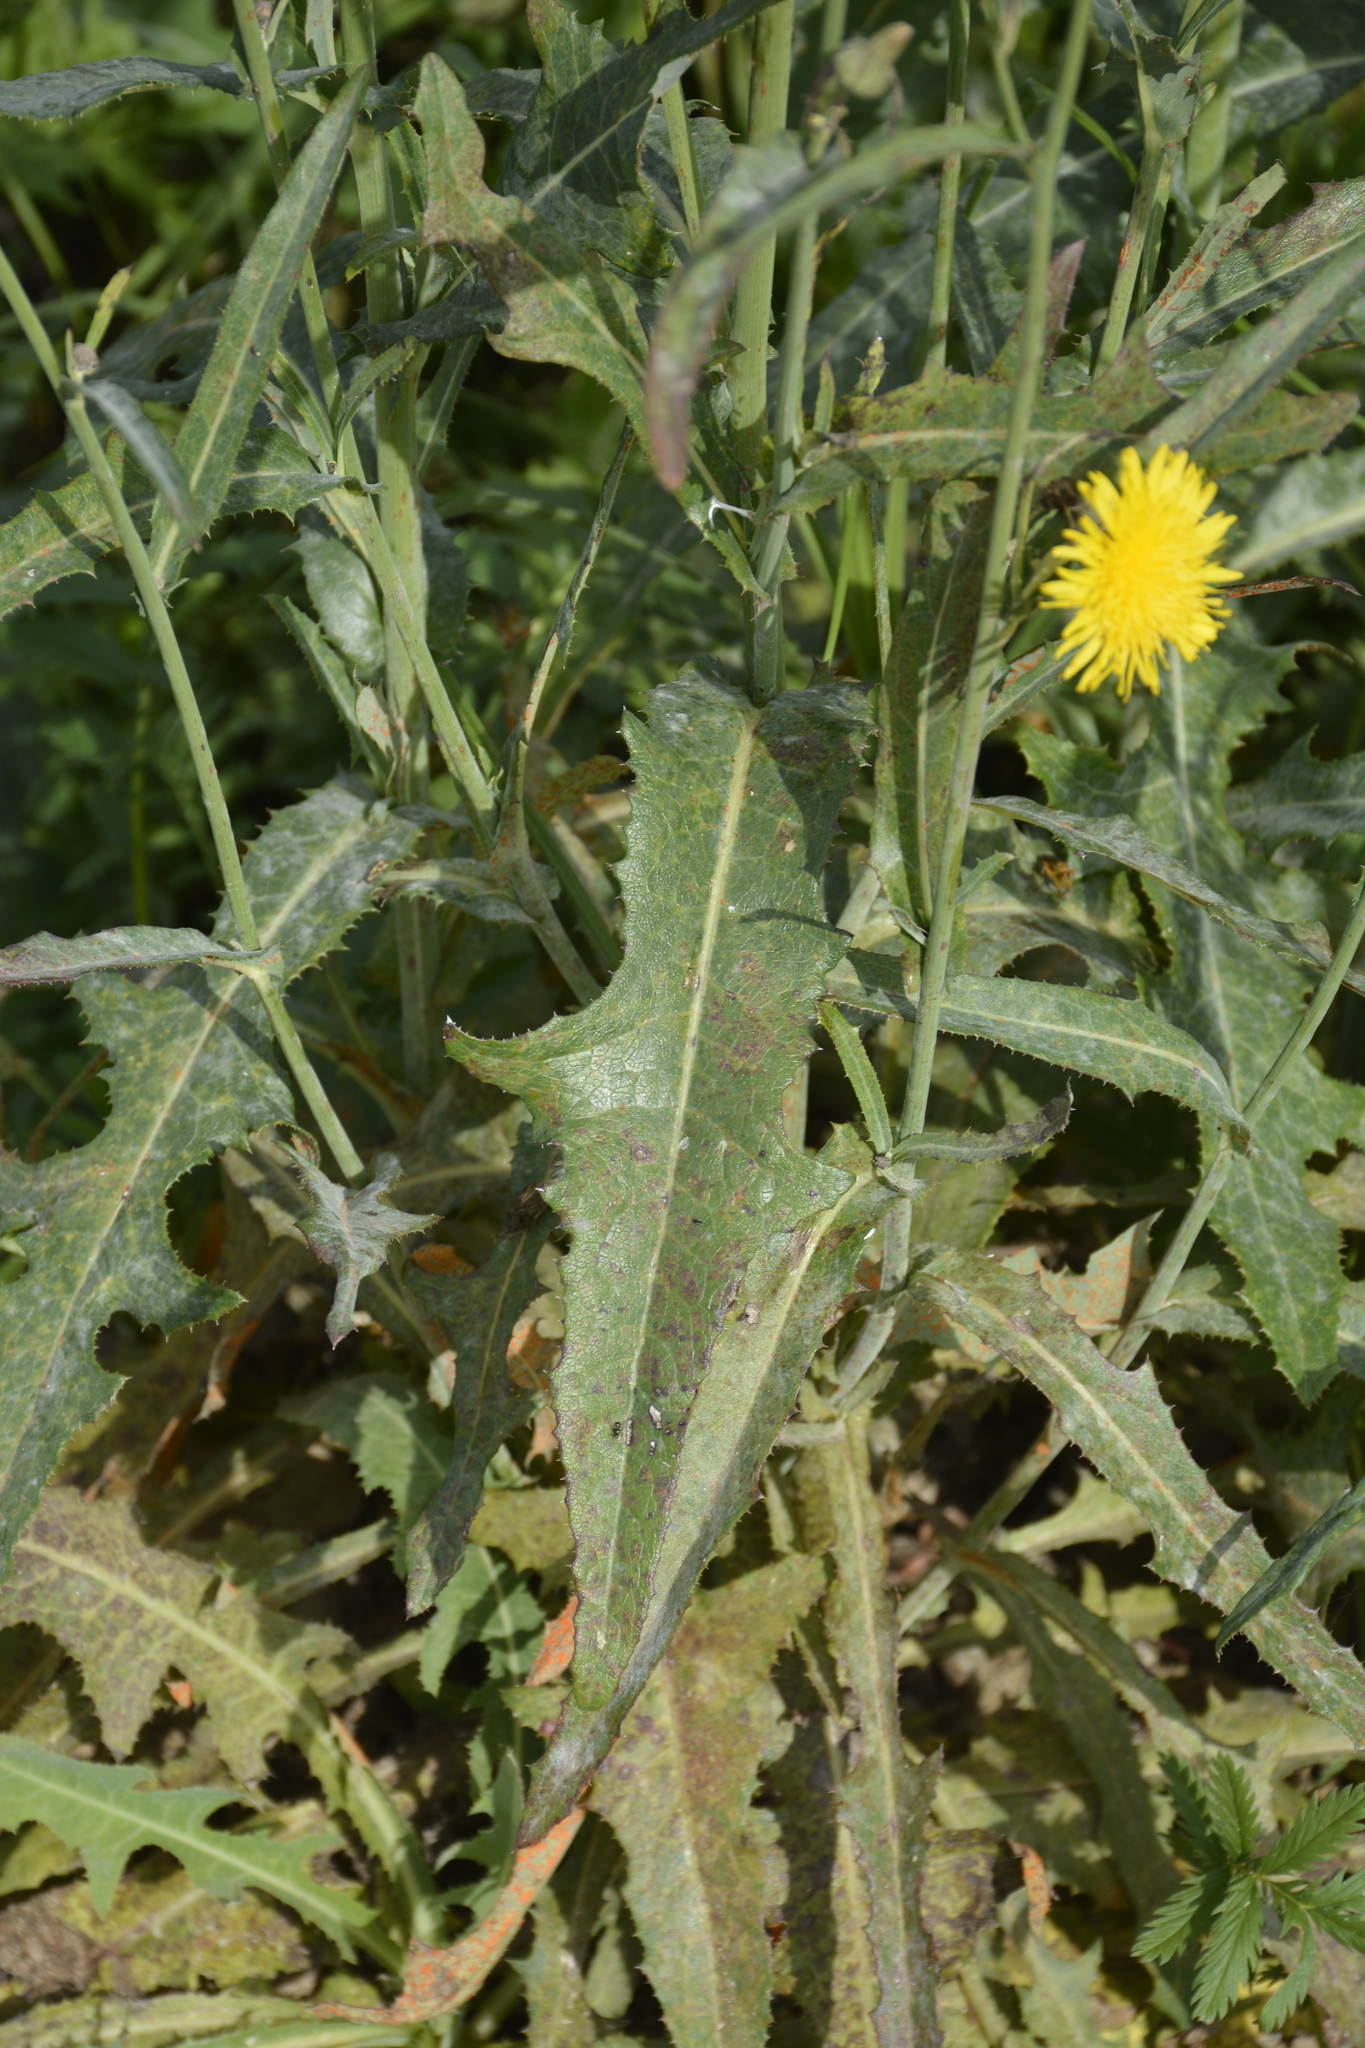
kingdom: Plantae
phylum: Tracheophyta
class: Magnoliopsida
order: Asterales
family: Asteraceae
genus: Sonchus
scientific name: Sonchus arvensis
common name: Perennial sow-thistle
